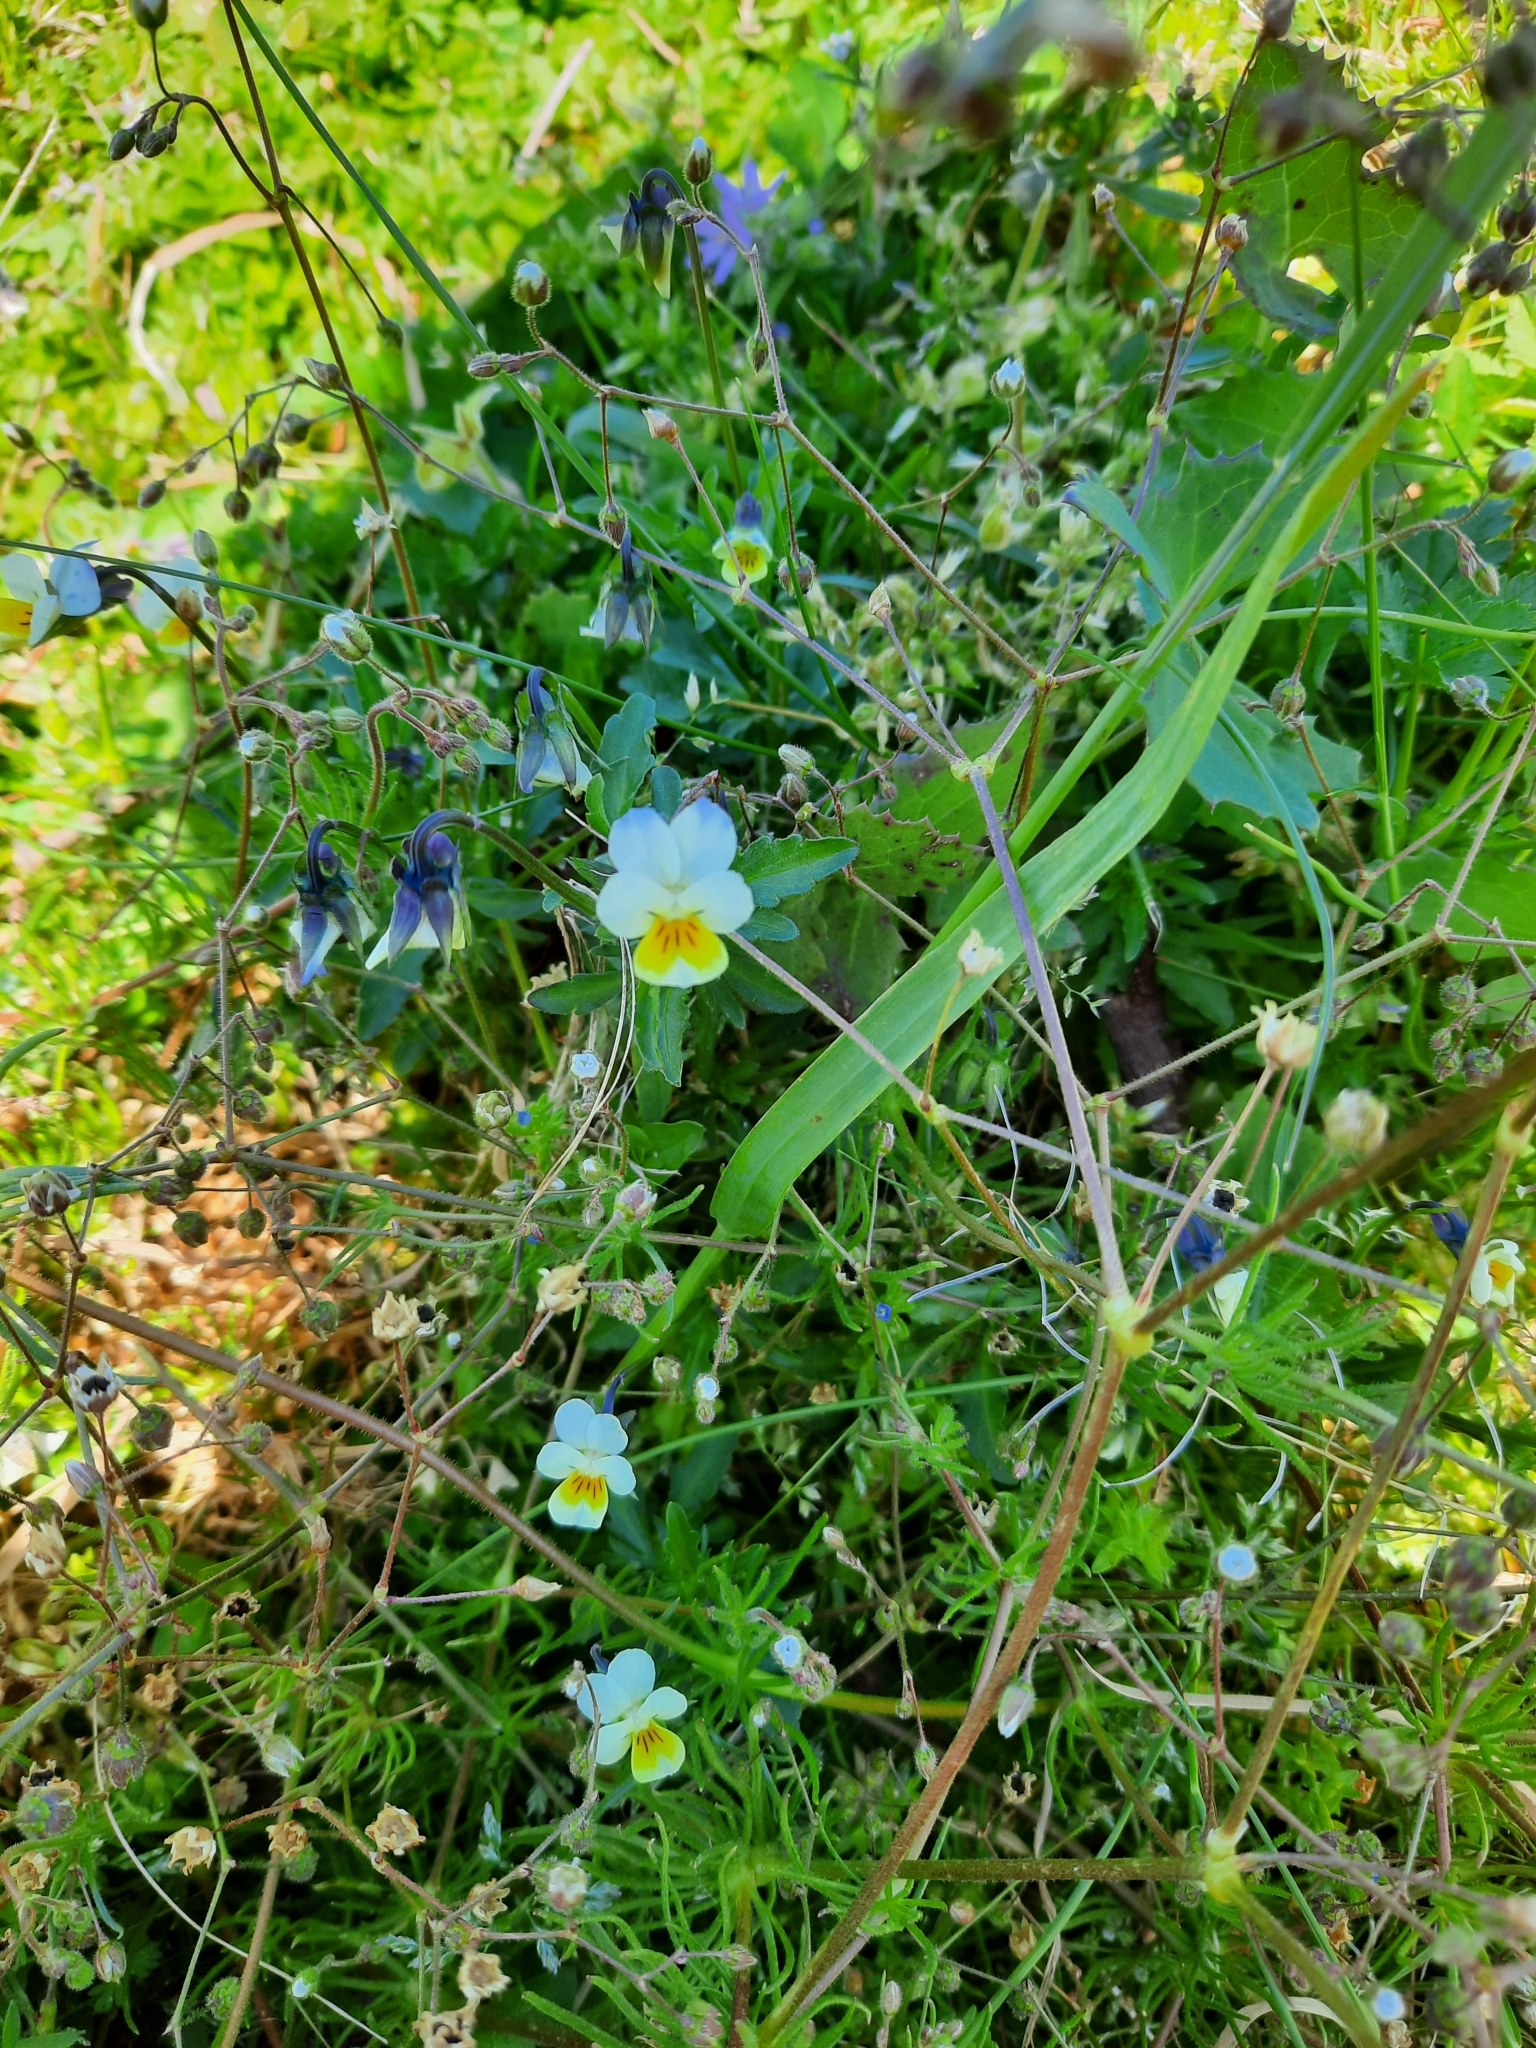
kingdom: Plantae
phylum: Tracheophyta
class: Magnoliopsida
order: Malpighiales
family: Violaceae
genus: Viola
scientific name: Viola arvensis
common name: Field pansy
